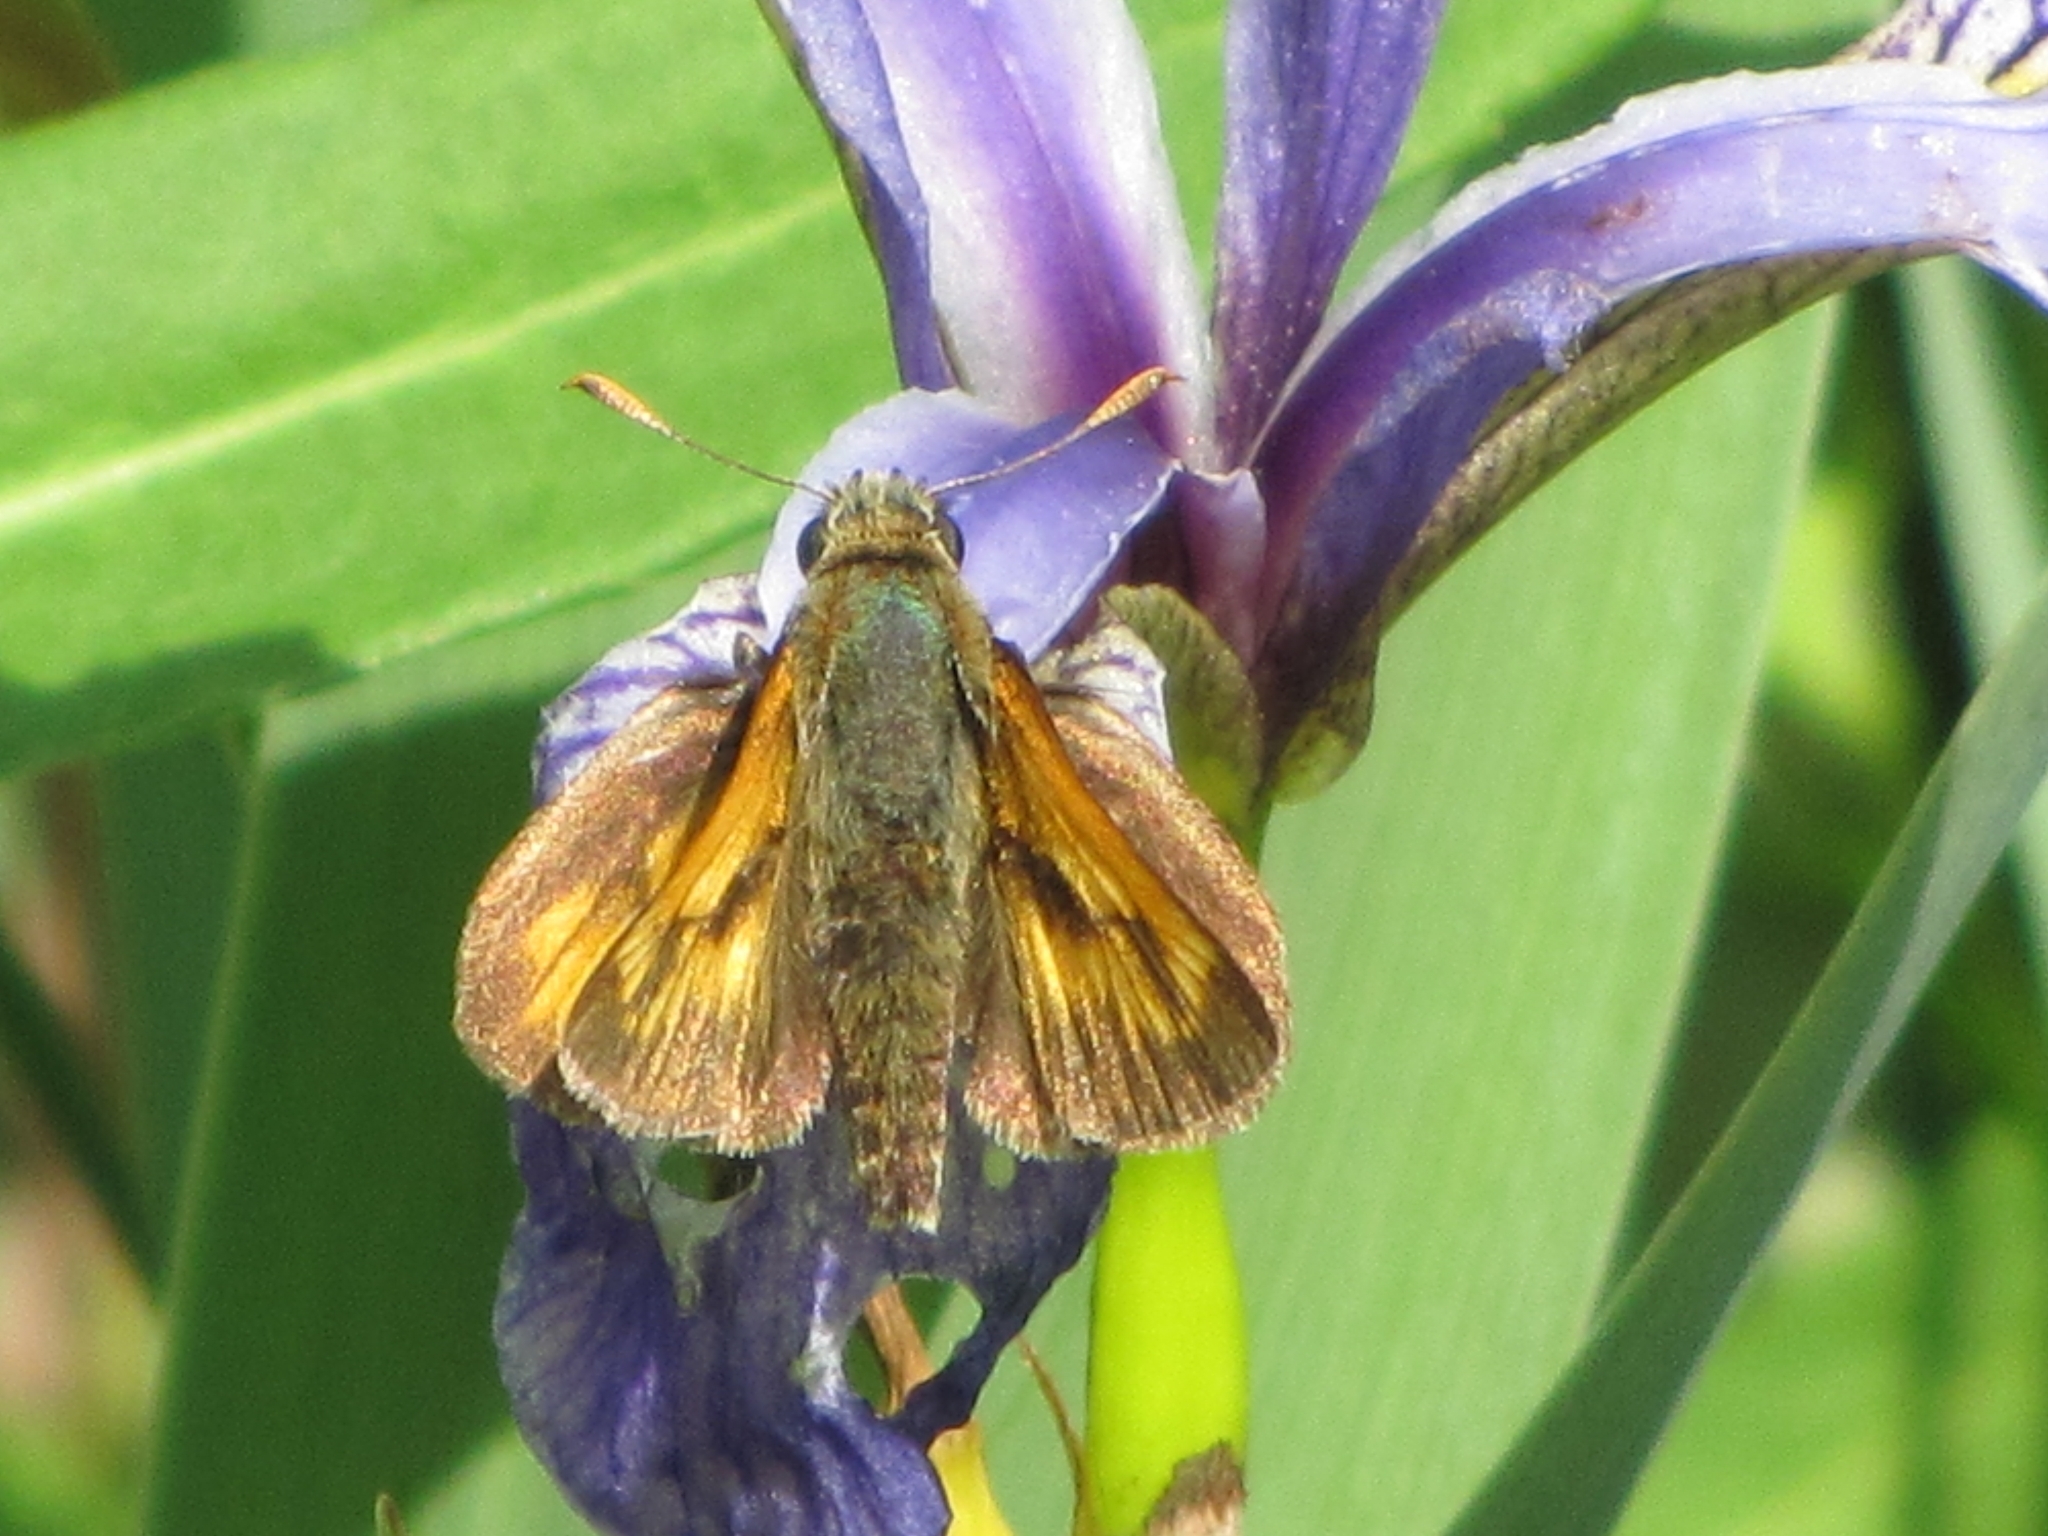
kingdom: Animalia
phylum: Arthropoda
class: Insecta
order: Lepidoptera
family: Hesperiidae
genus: Polites
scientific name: Polites mystic
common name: Long dash
